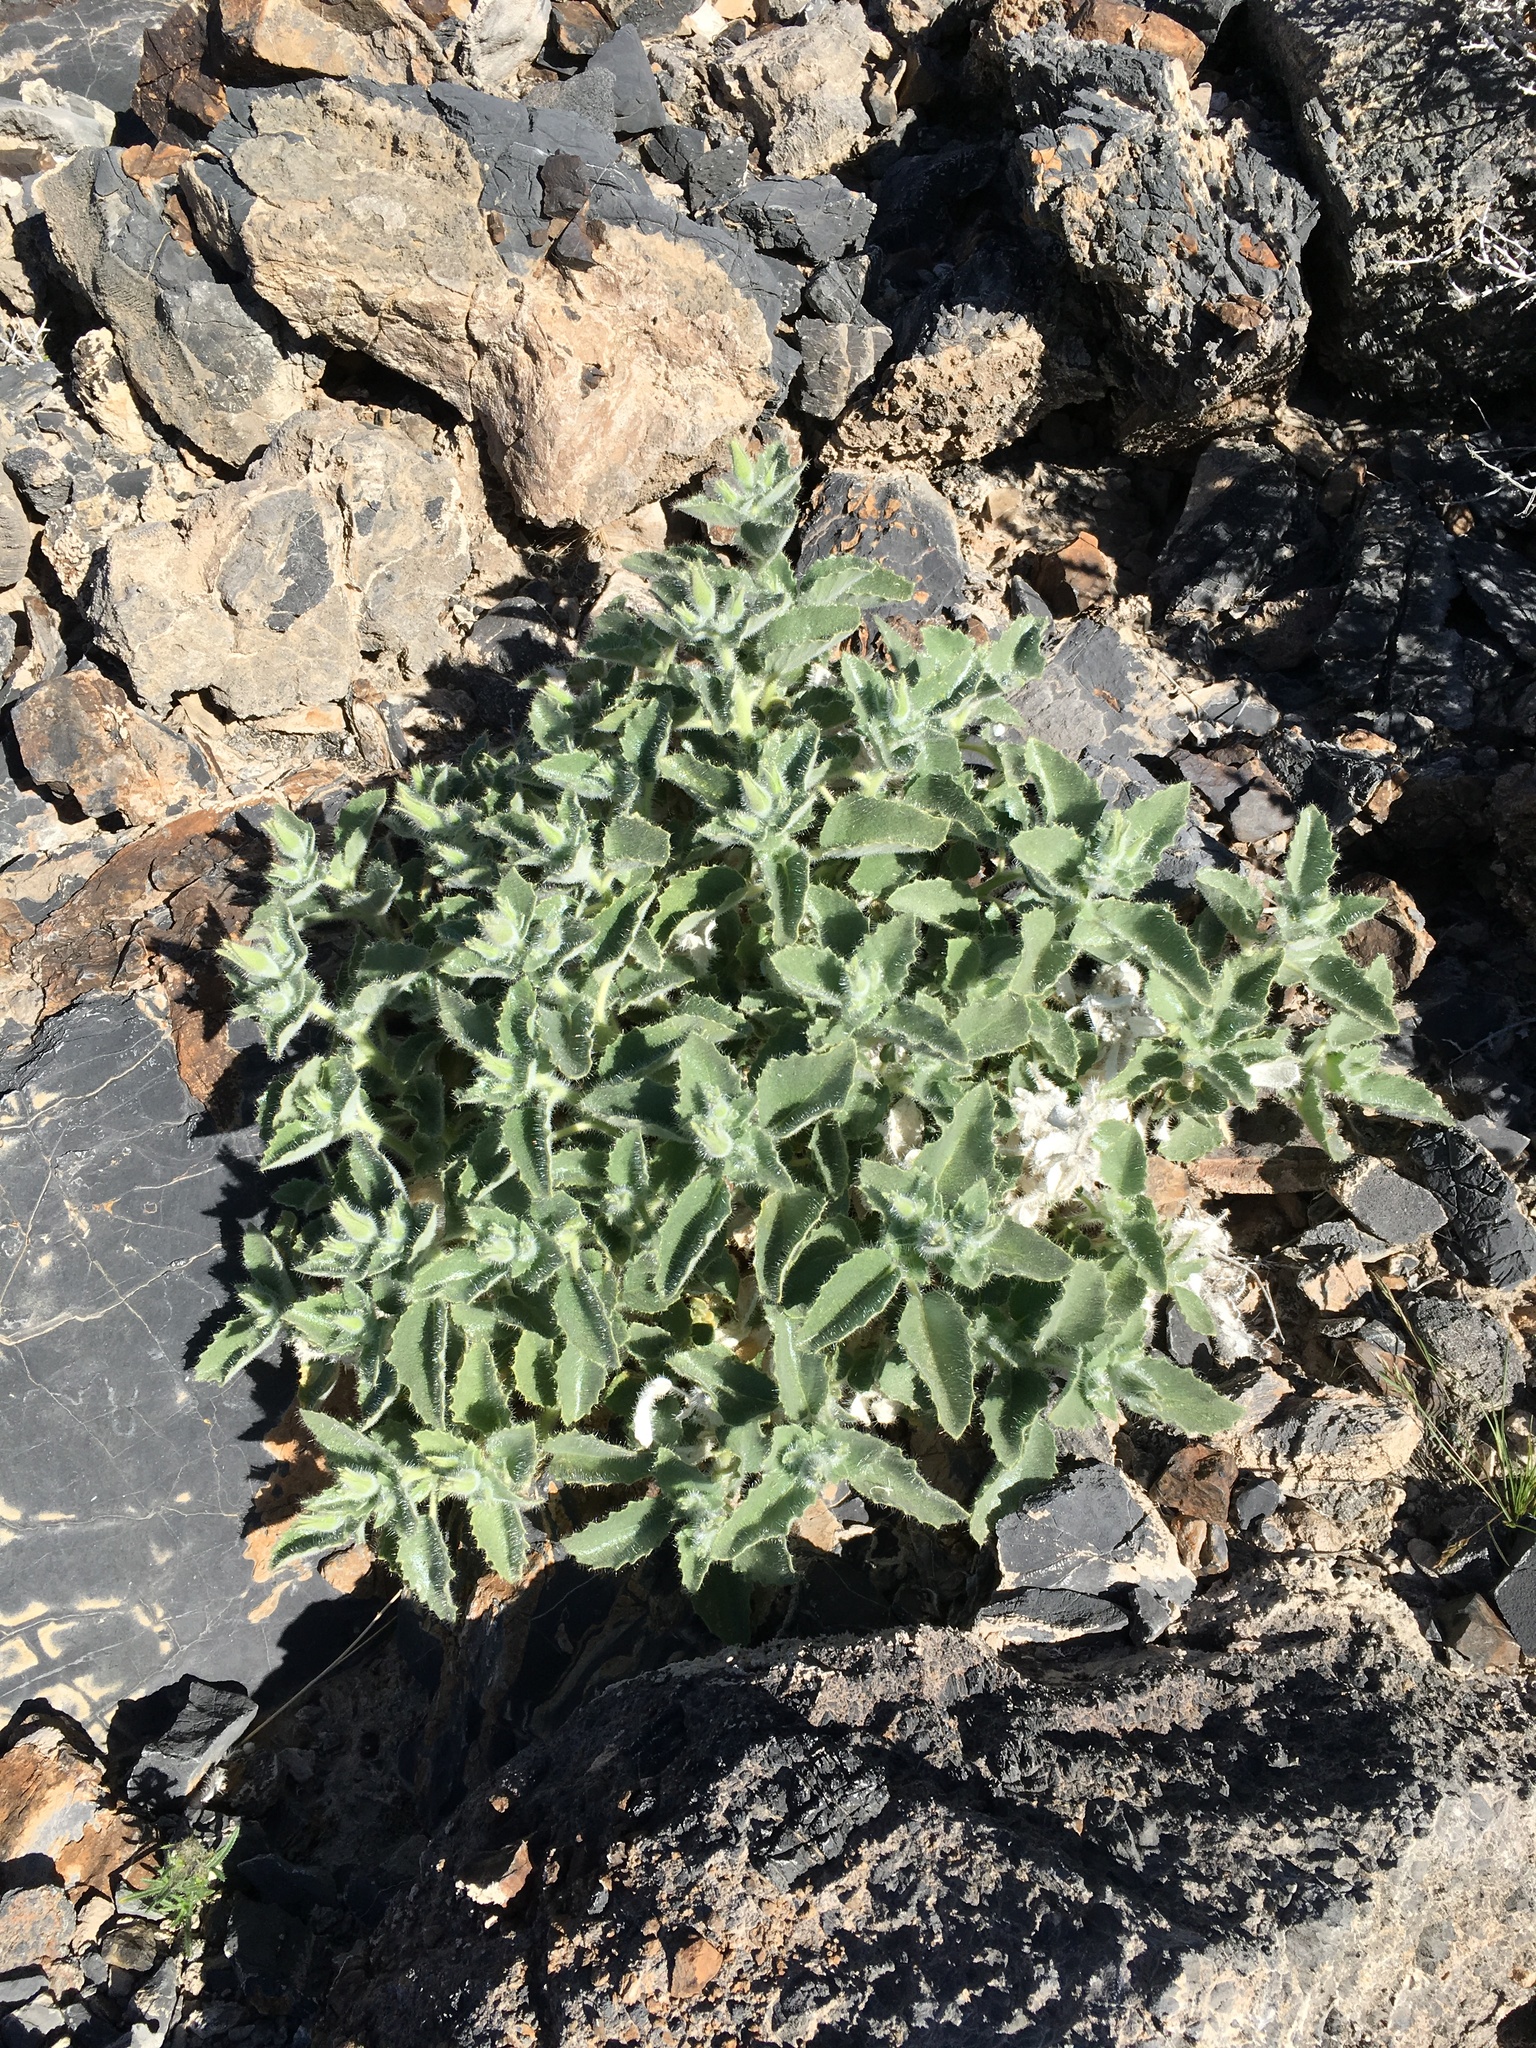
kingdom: Plantae
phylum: Tracheophyta
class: Magnoliopsida
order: Cornales
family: Loasaceae
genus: Eucnide
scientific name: Eucnide urens
